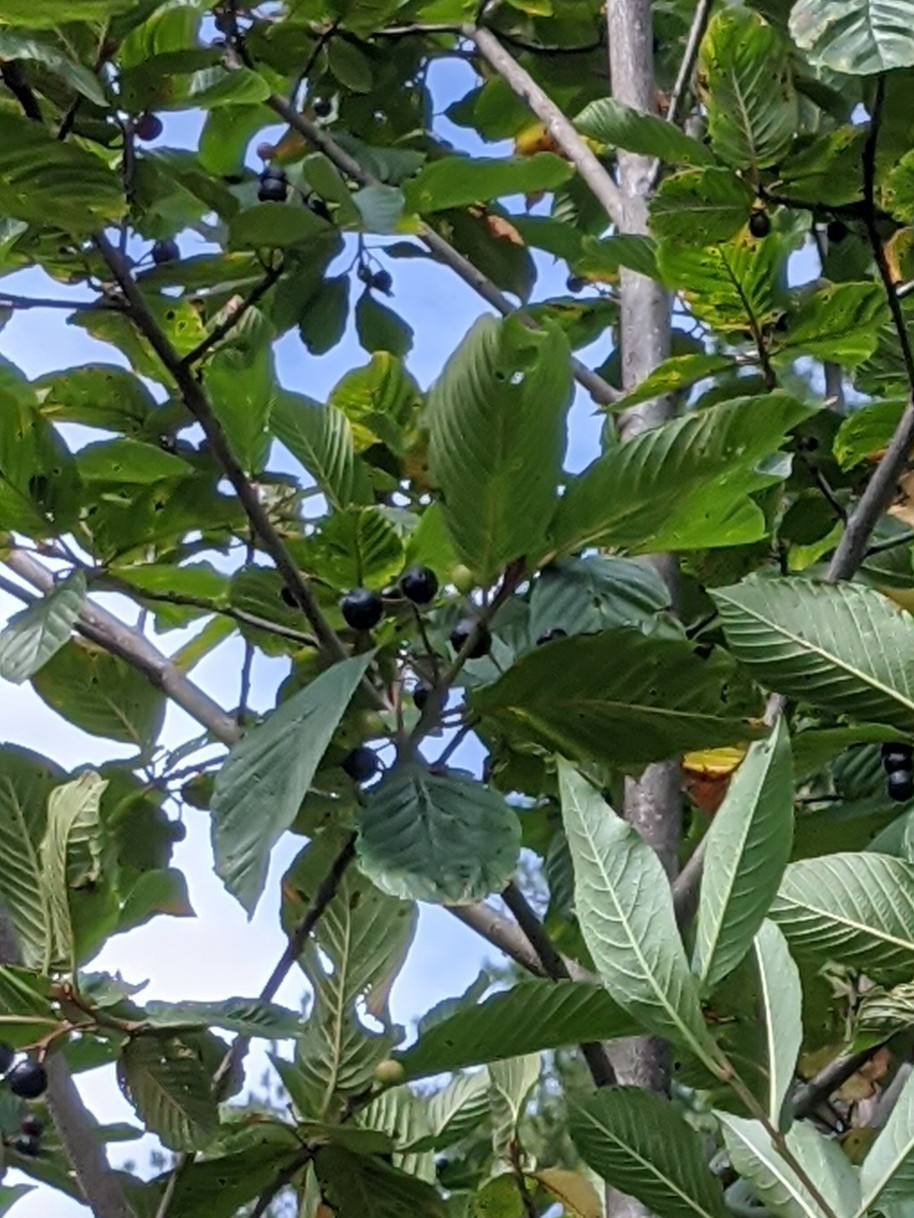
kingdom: Plantae
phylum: Tracheophyta
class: Magnoliopsida
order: Rosales
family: Rhamnaceae
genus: Frangula
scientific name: Frangula purshiana
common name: Cascara buckthorn
